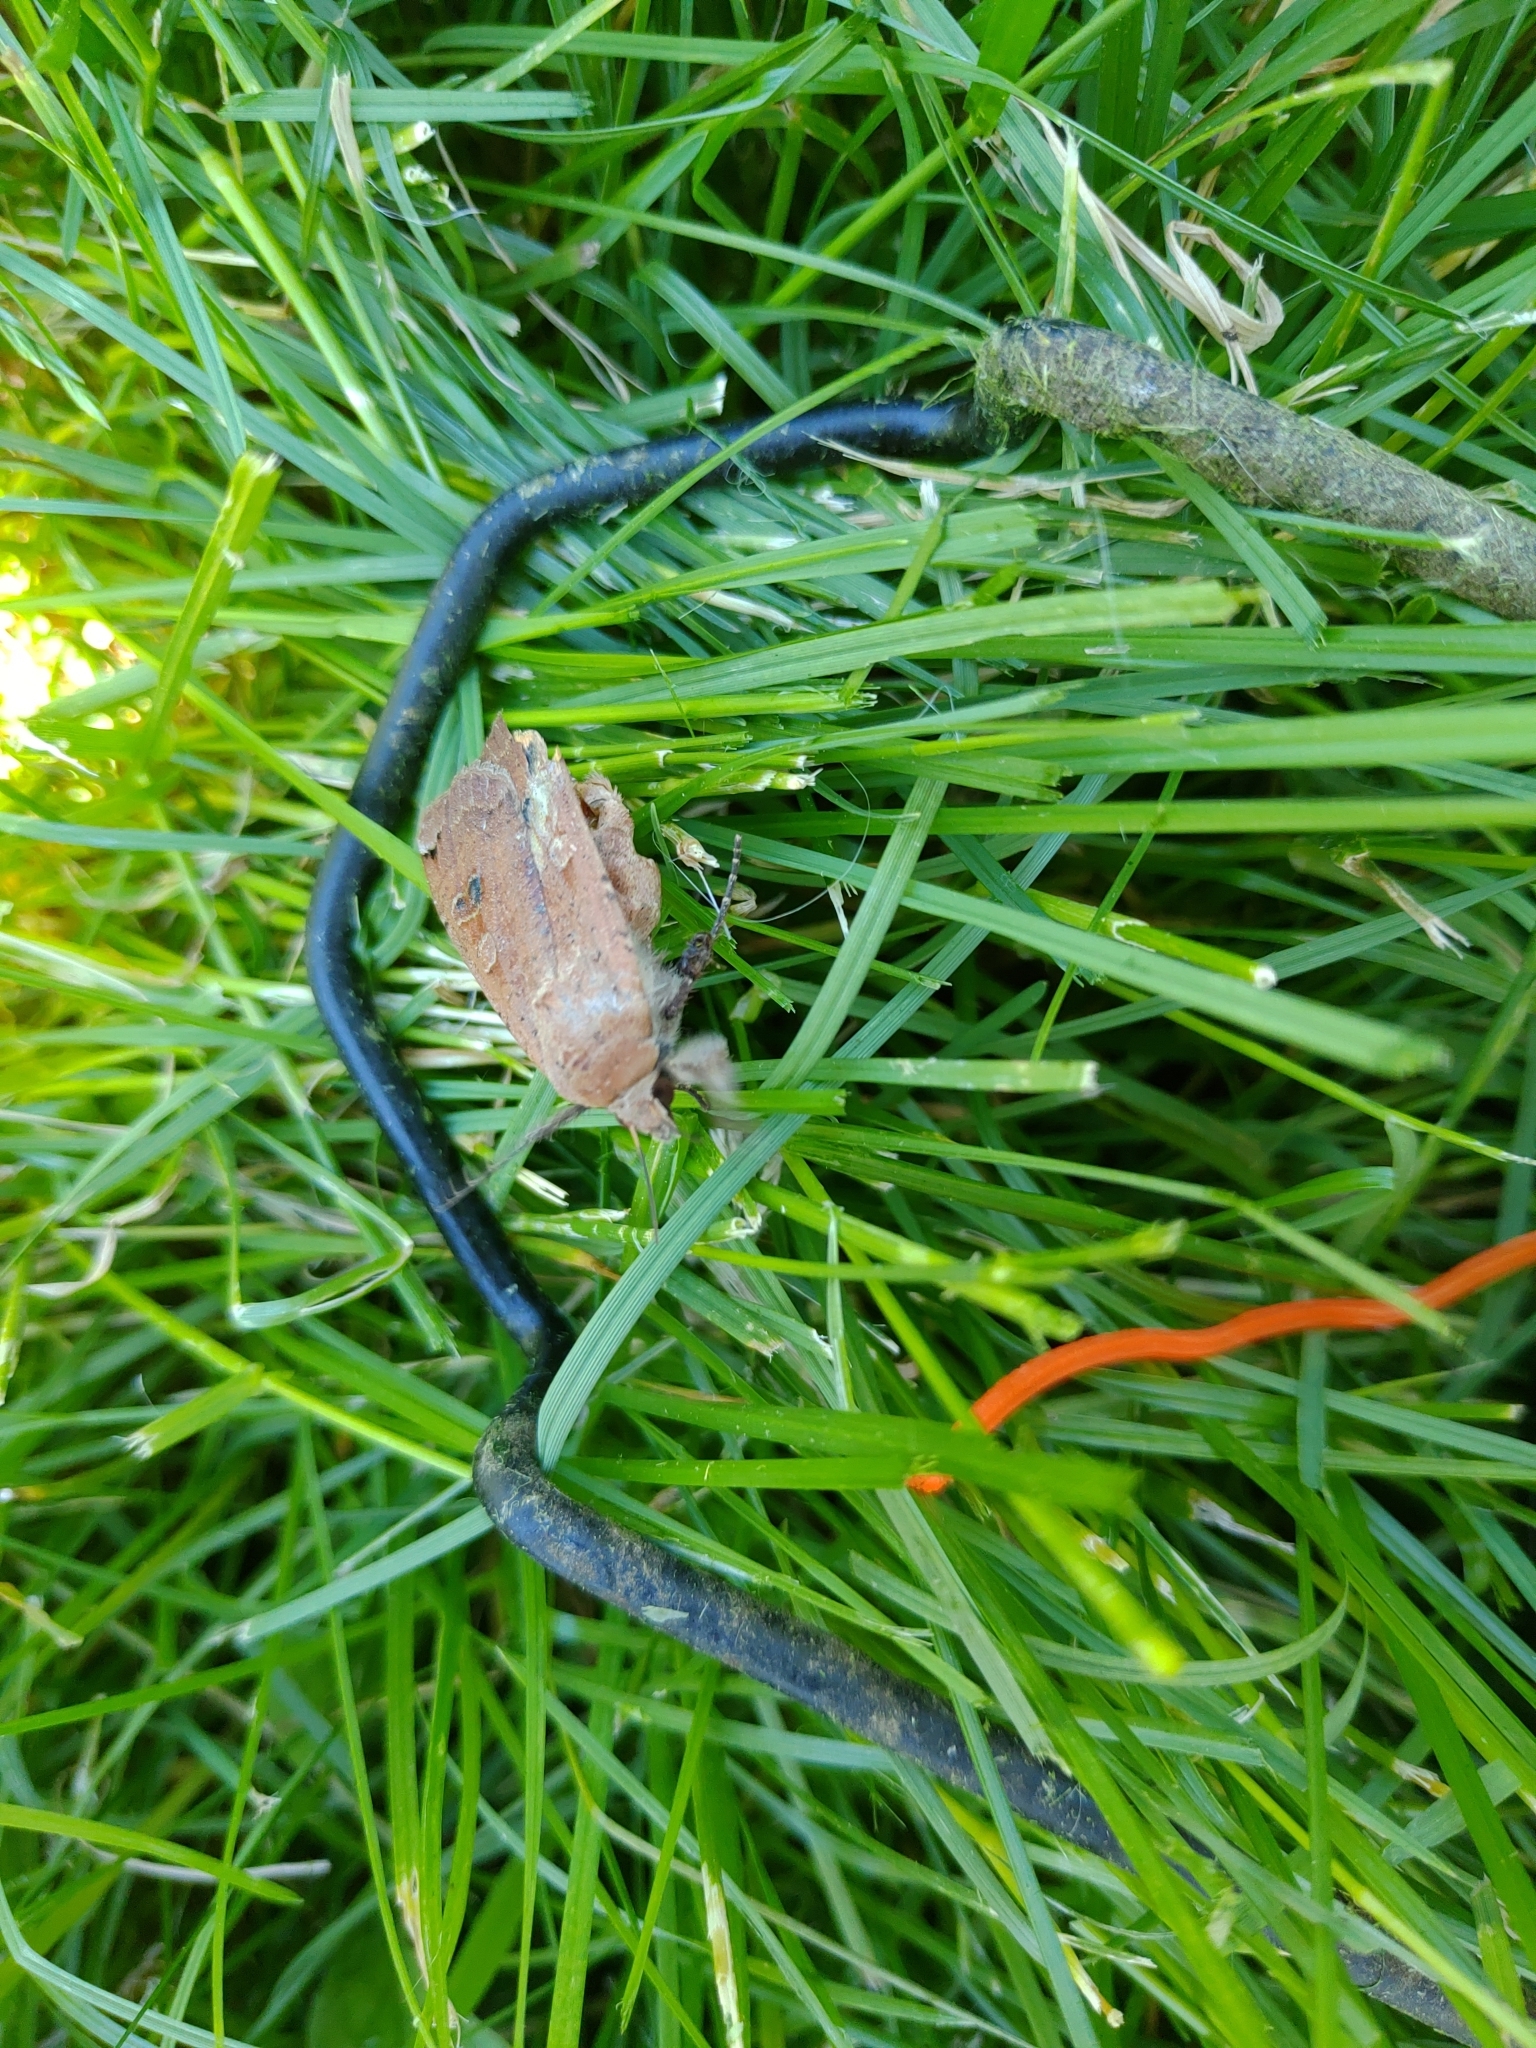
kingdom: Animalia
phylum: Arthropoda
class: Insecta
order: Lepidoptera
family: Noctuidae
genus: Noctua
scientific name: Noctua pronuba
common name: Large yellow underwing
